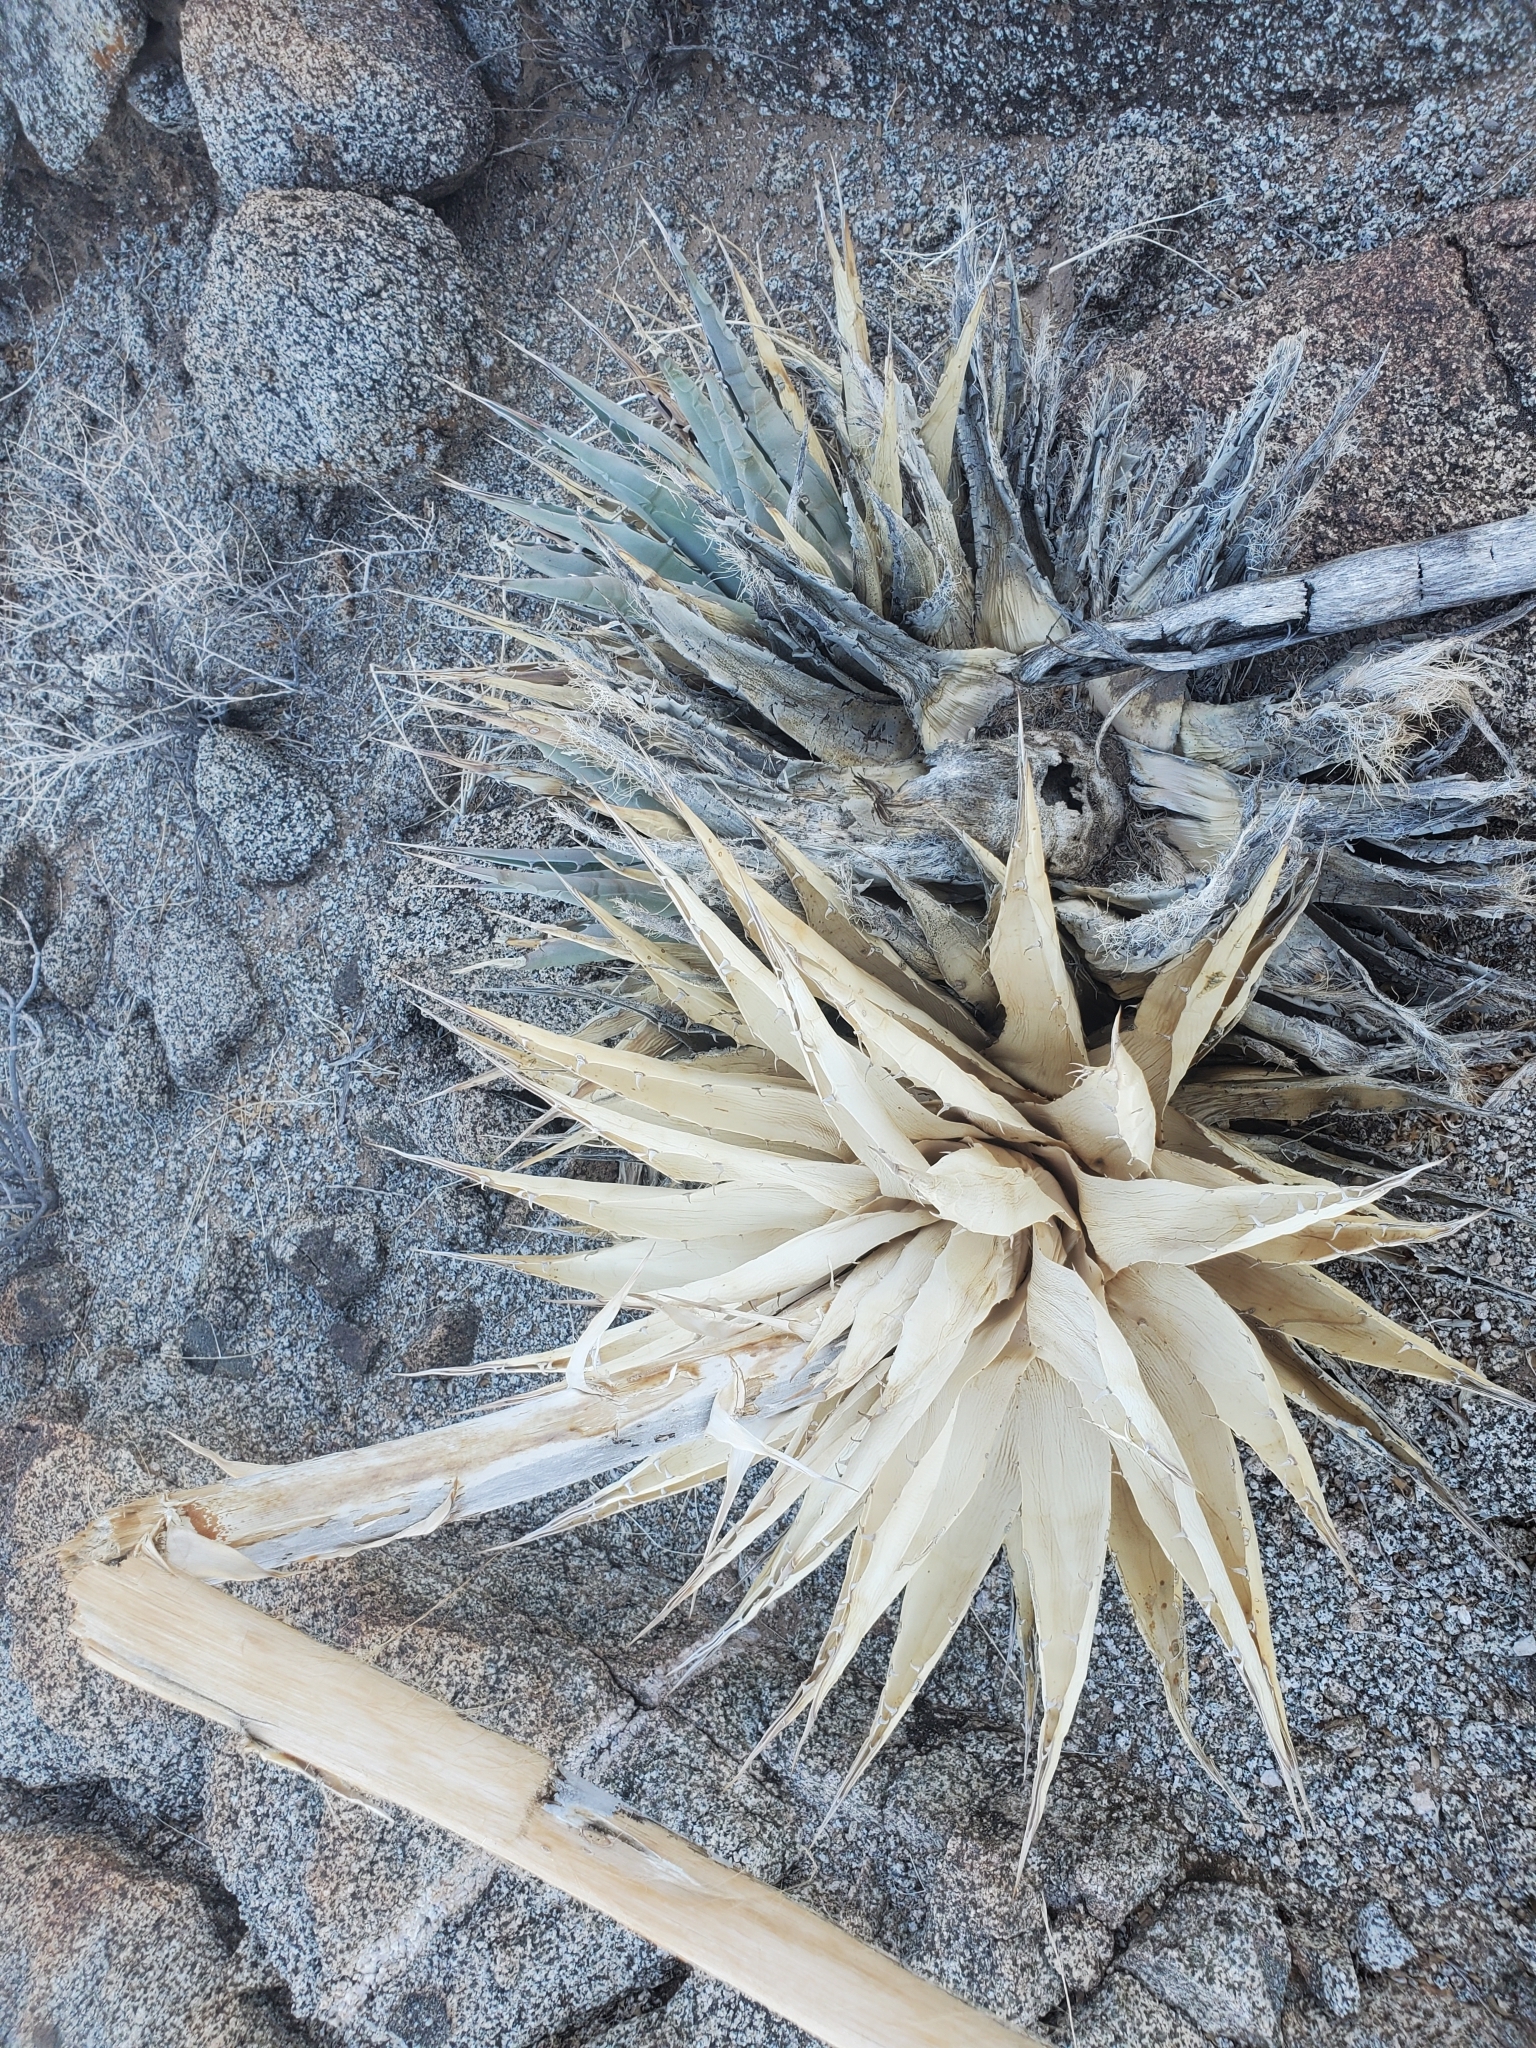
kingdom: Plantae
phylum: Tracheophyta
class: Liliopsida
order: Asparagales
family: Asparagaceae
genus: Agave
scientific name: Agave simplex
